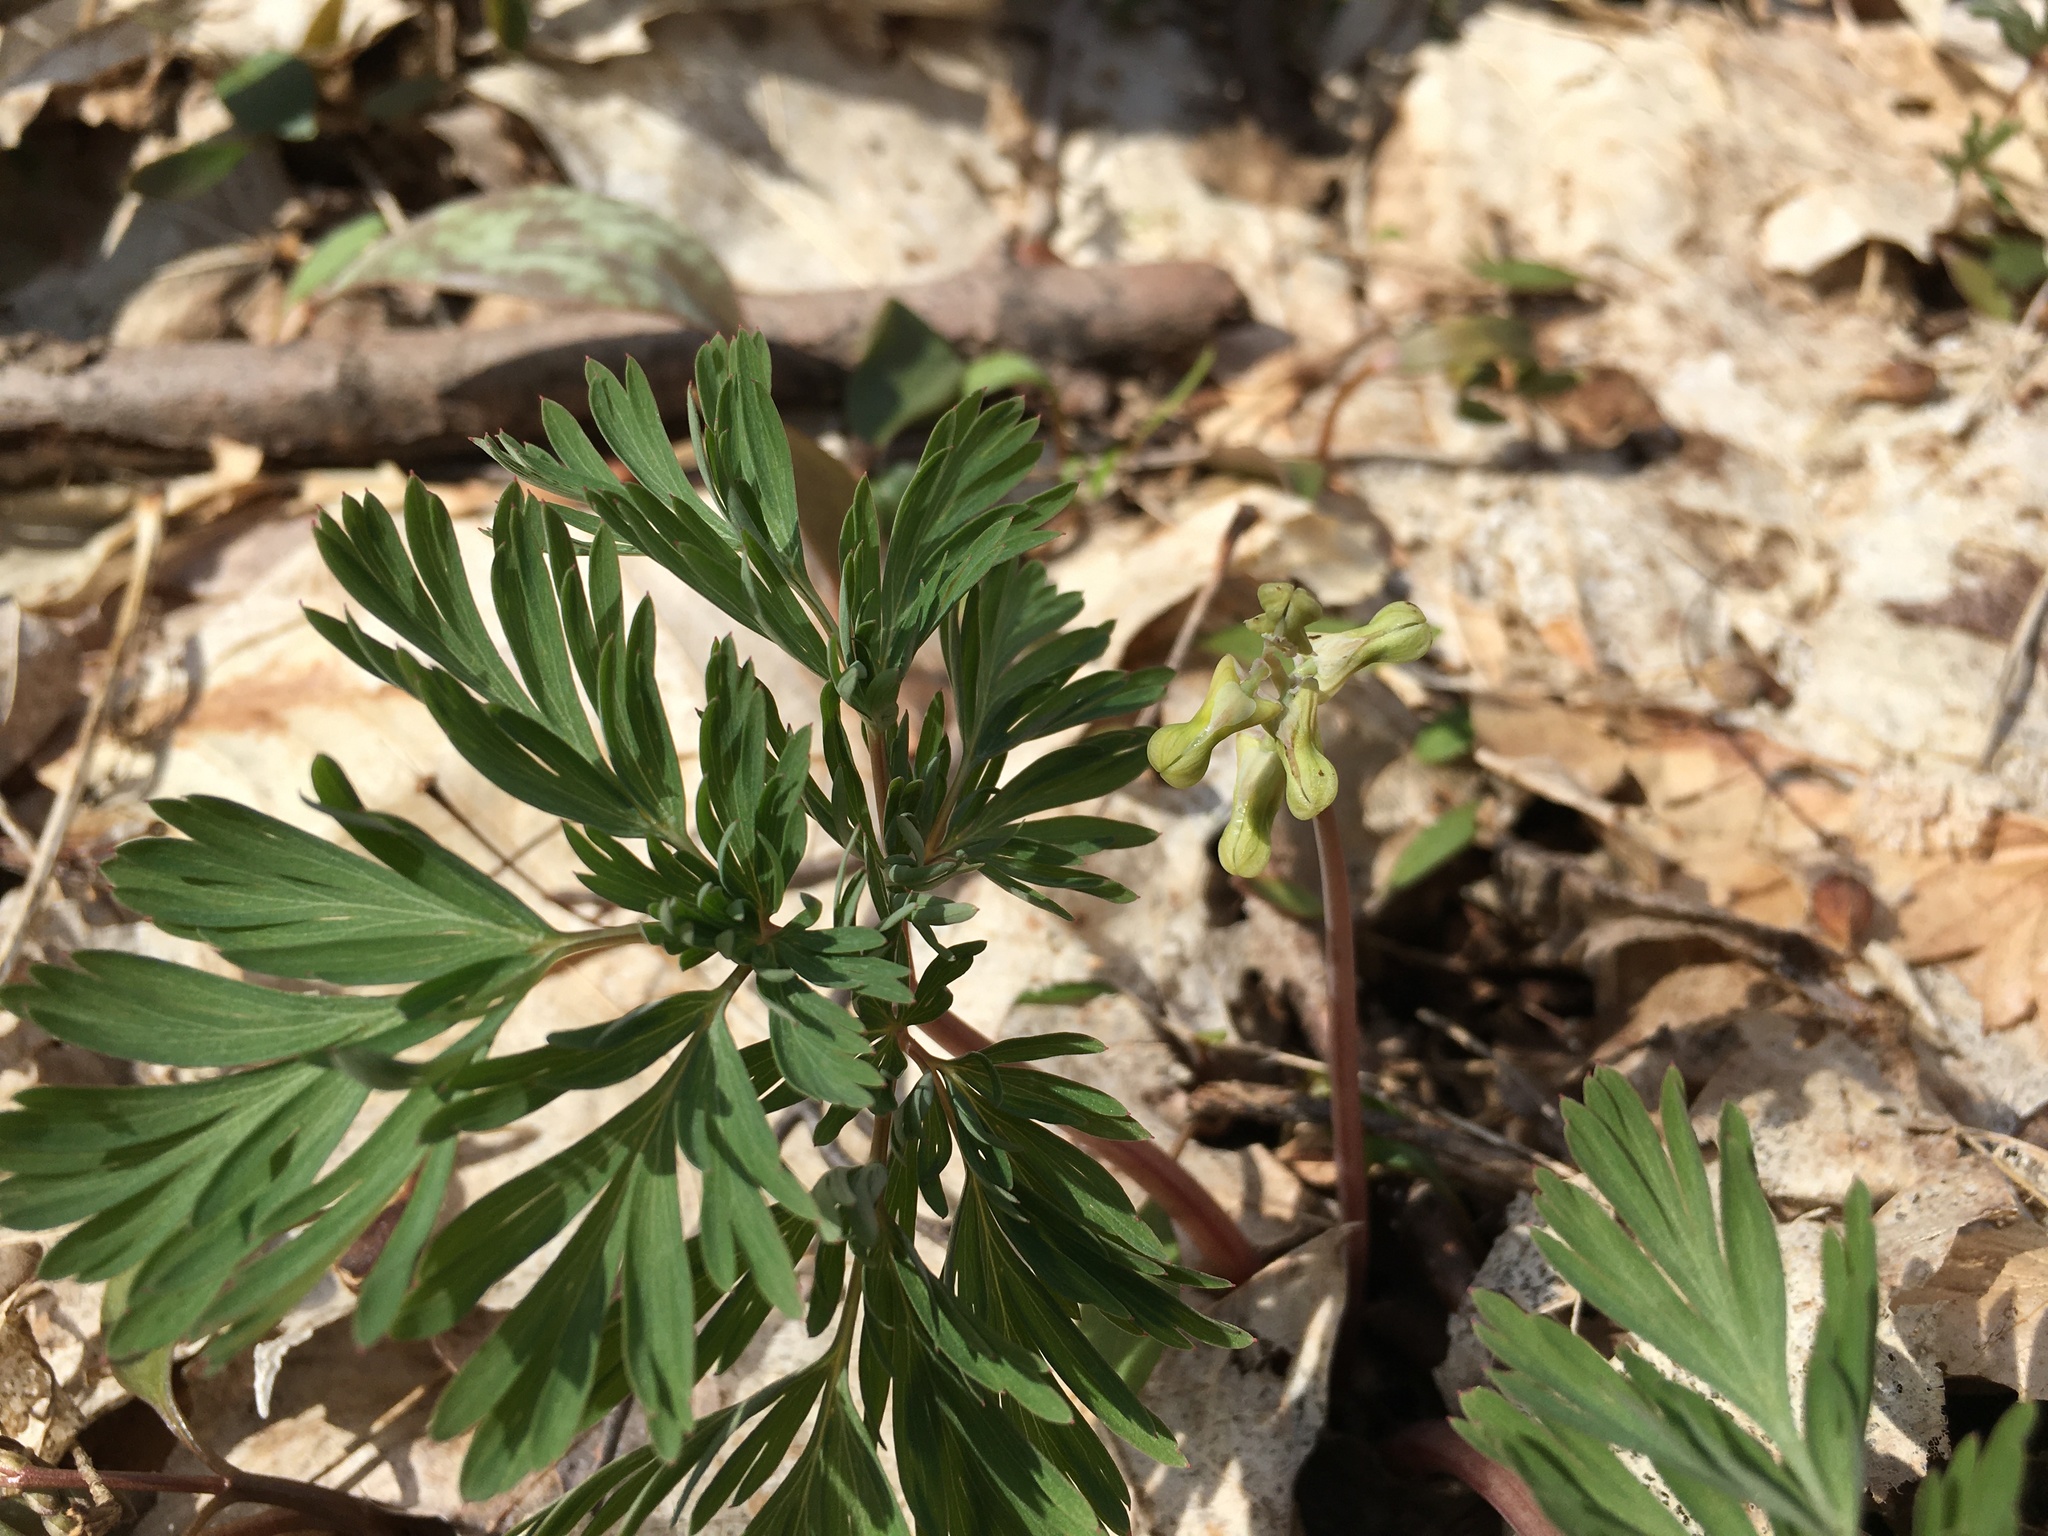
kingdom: Plantae
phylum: Tracheophyta
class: Magnoliopsida
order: Ranunculales
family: Papaveraceae
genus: Dicentra
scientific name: Dicentra cucullaria
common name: Dutchman's breeches
